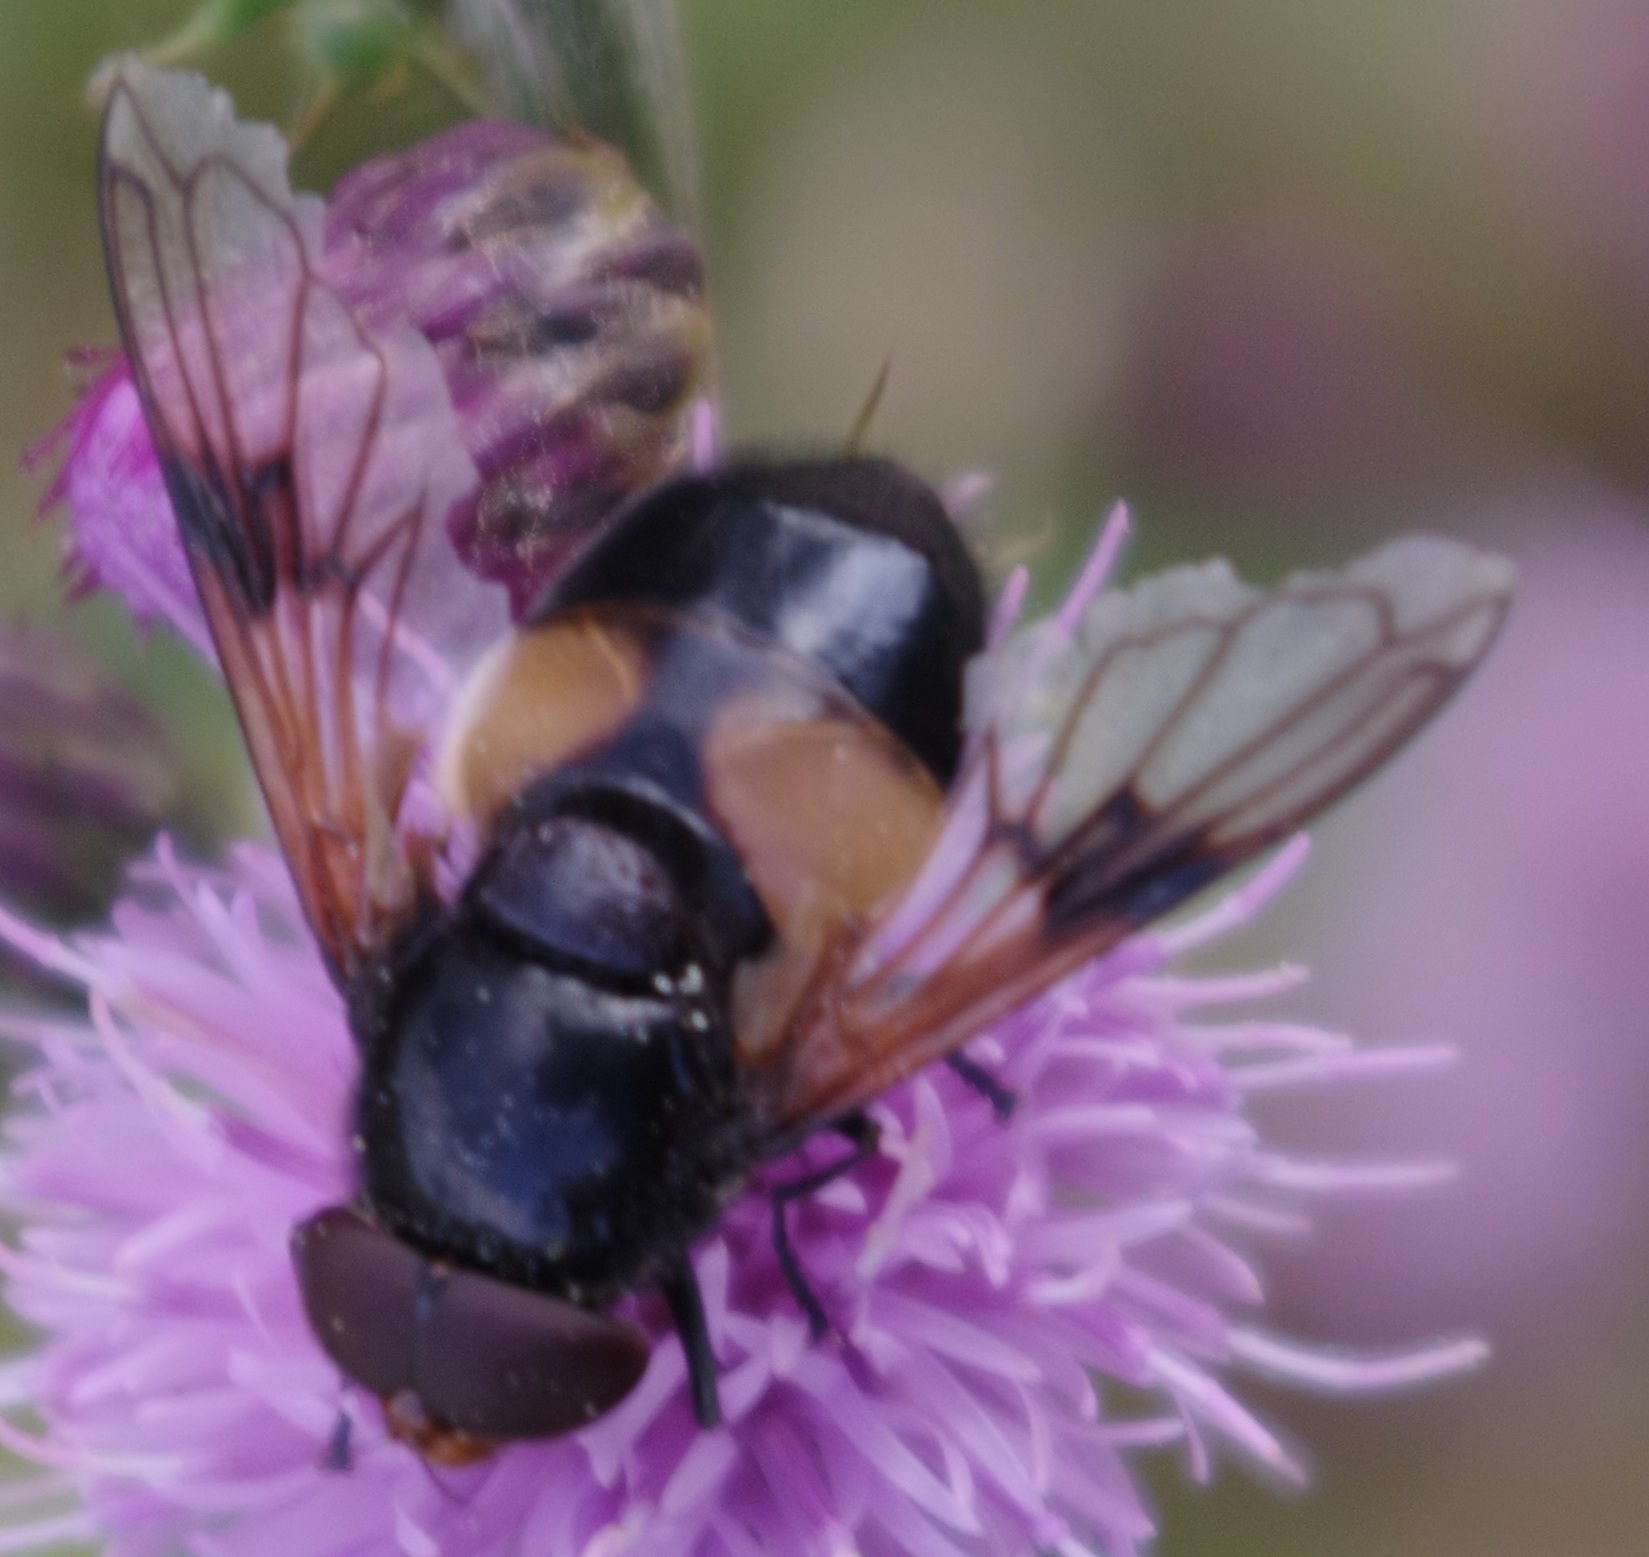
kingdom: Animalia
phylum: Arthropoda
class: Insecta
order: Diptera
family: Syrphidae
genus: Volucella
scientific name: Volucella pellucens
